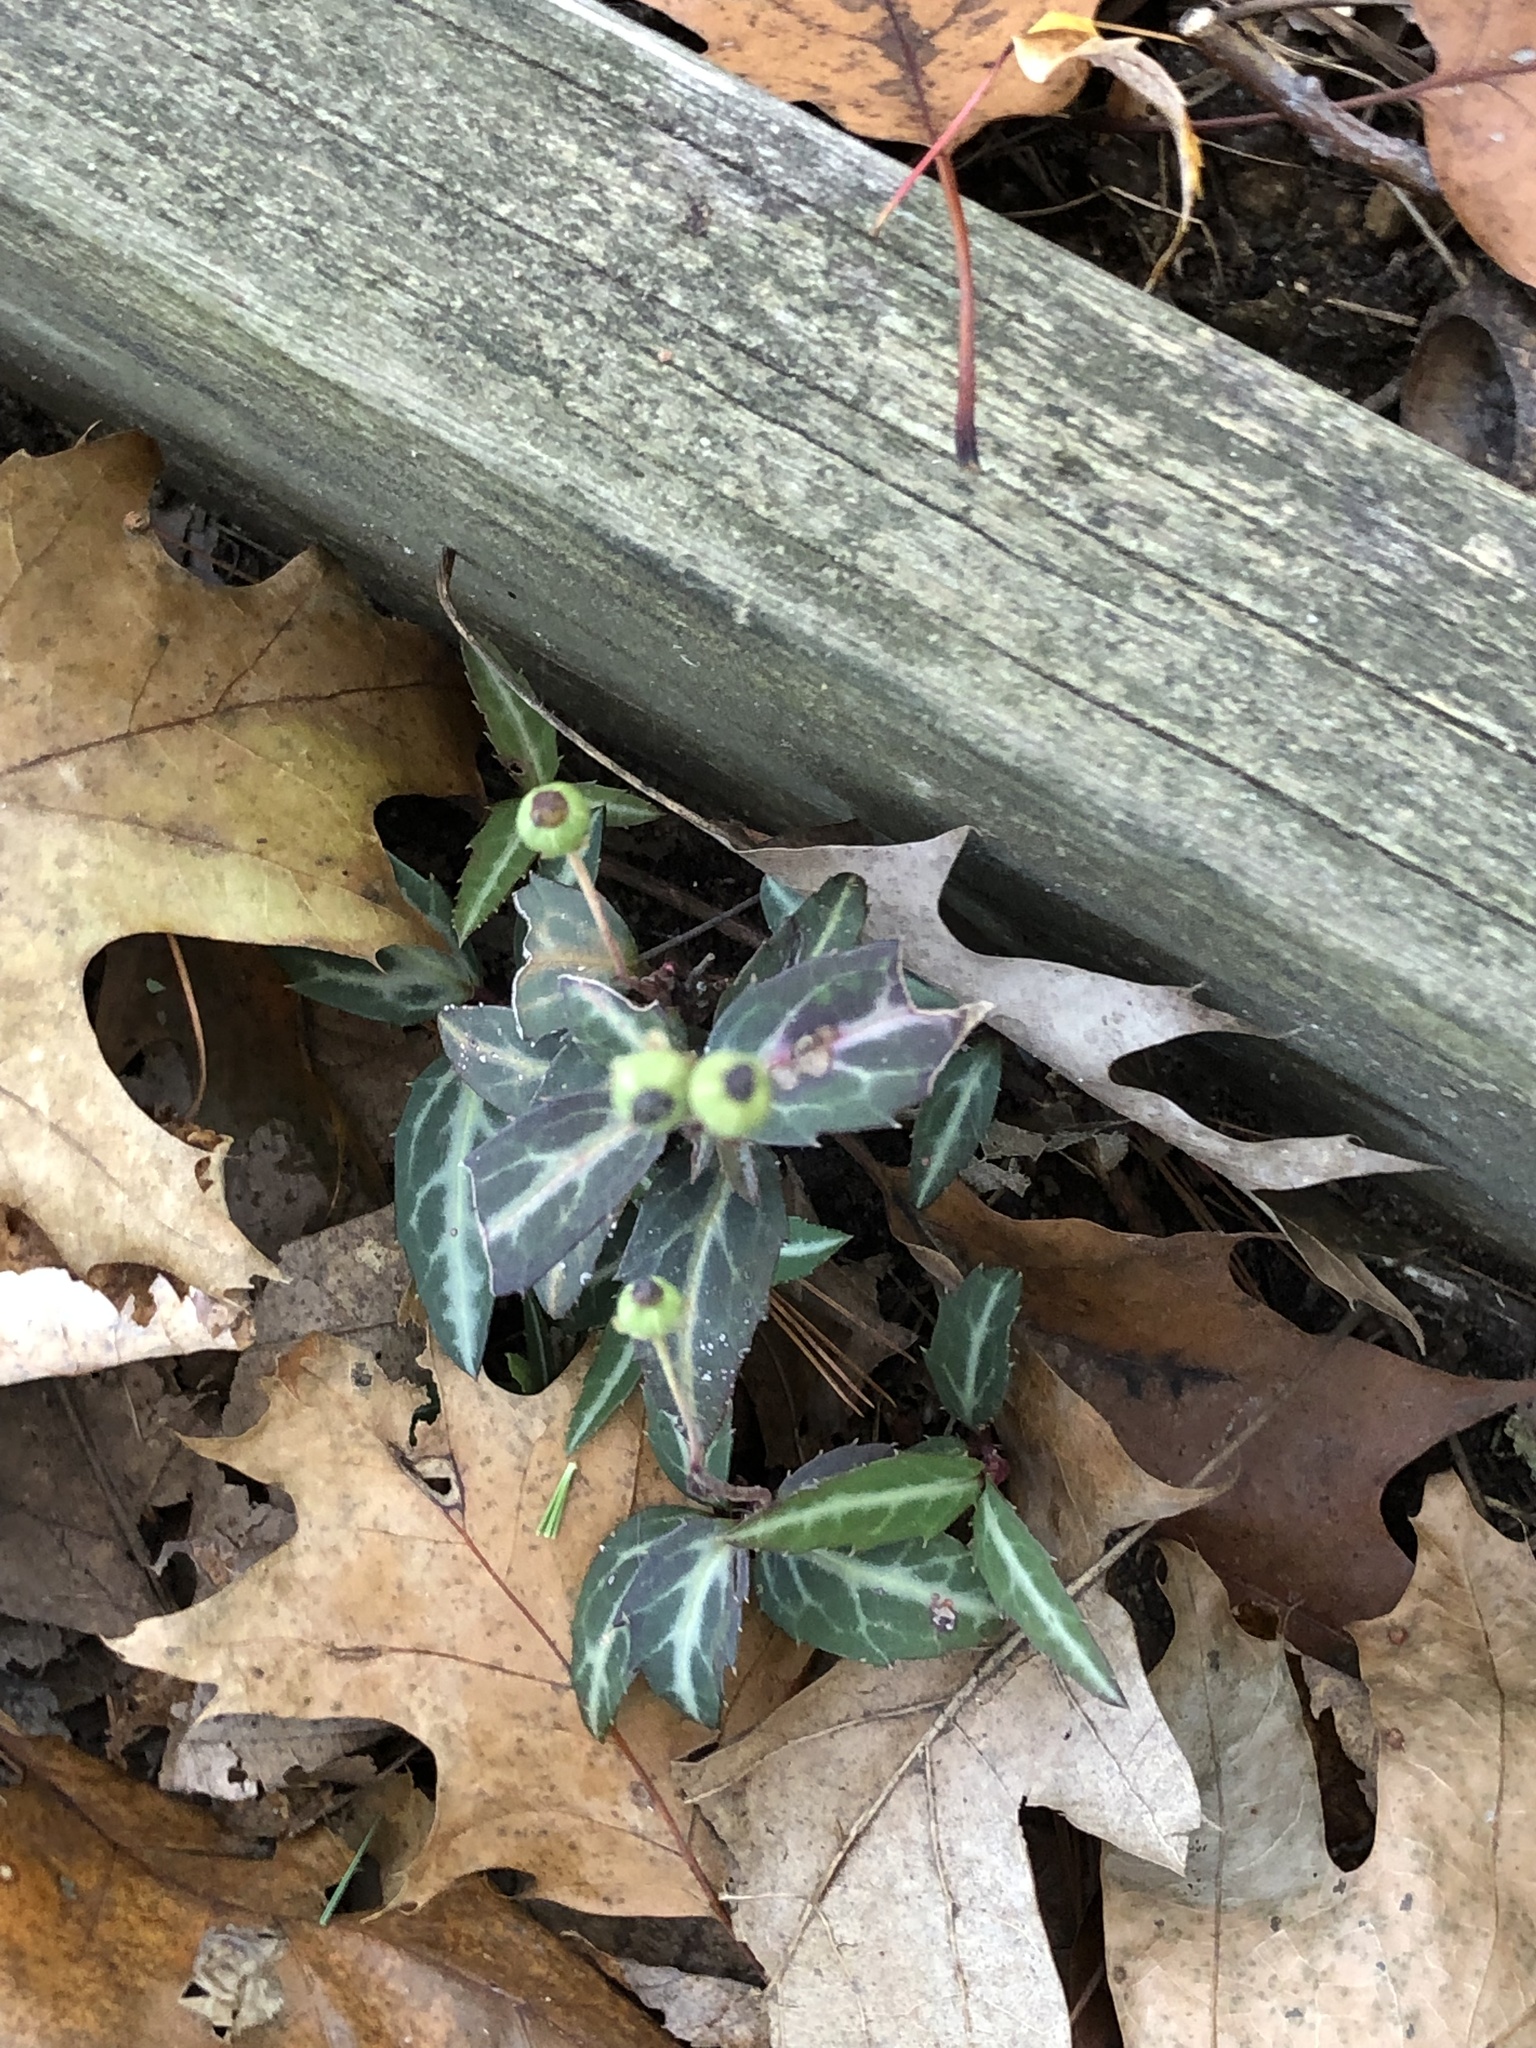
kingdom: Plantae
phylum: Tracheophyta
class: Magnoliopsida
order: Ericales
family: Ericaceae
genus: Chimaphila
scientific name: Chimaphila maculata
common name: Spotted pipsissewa
